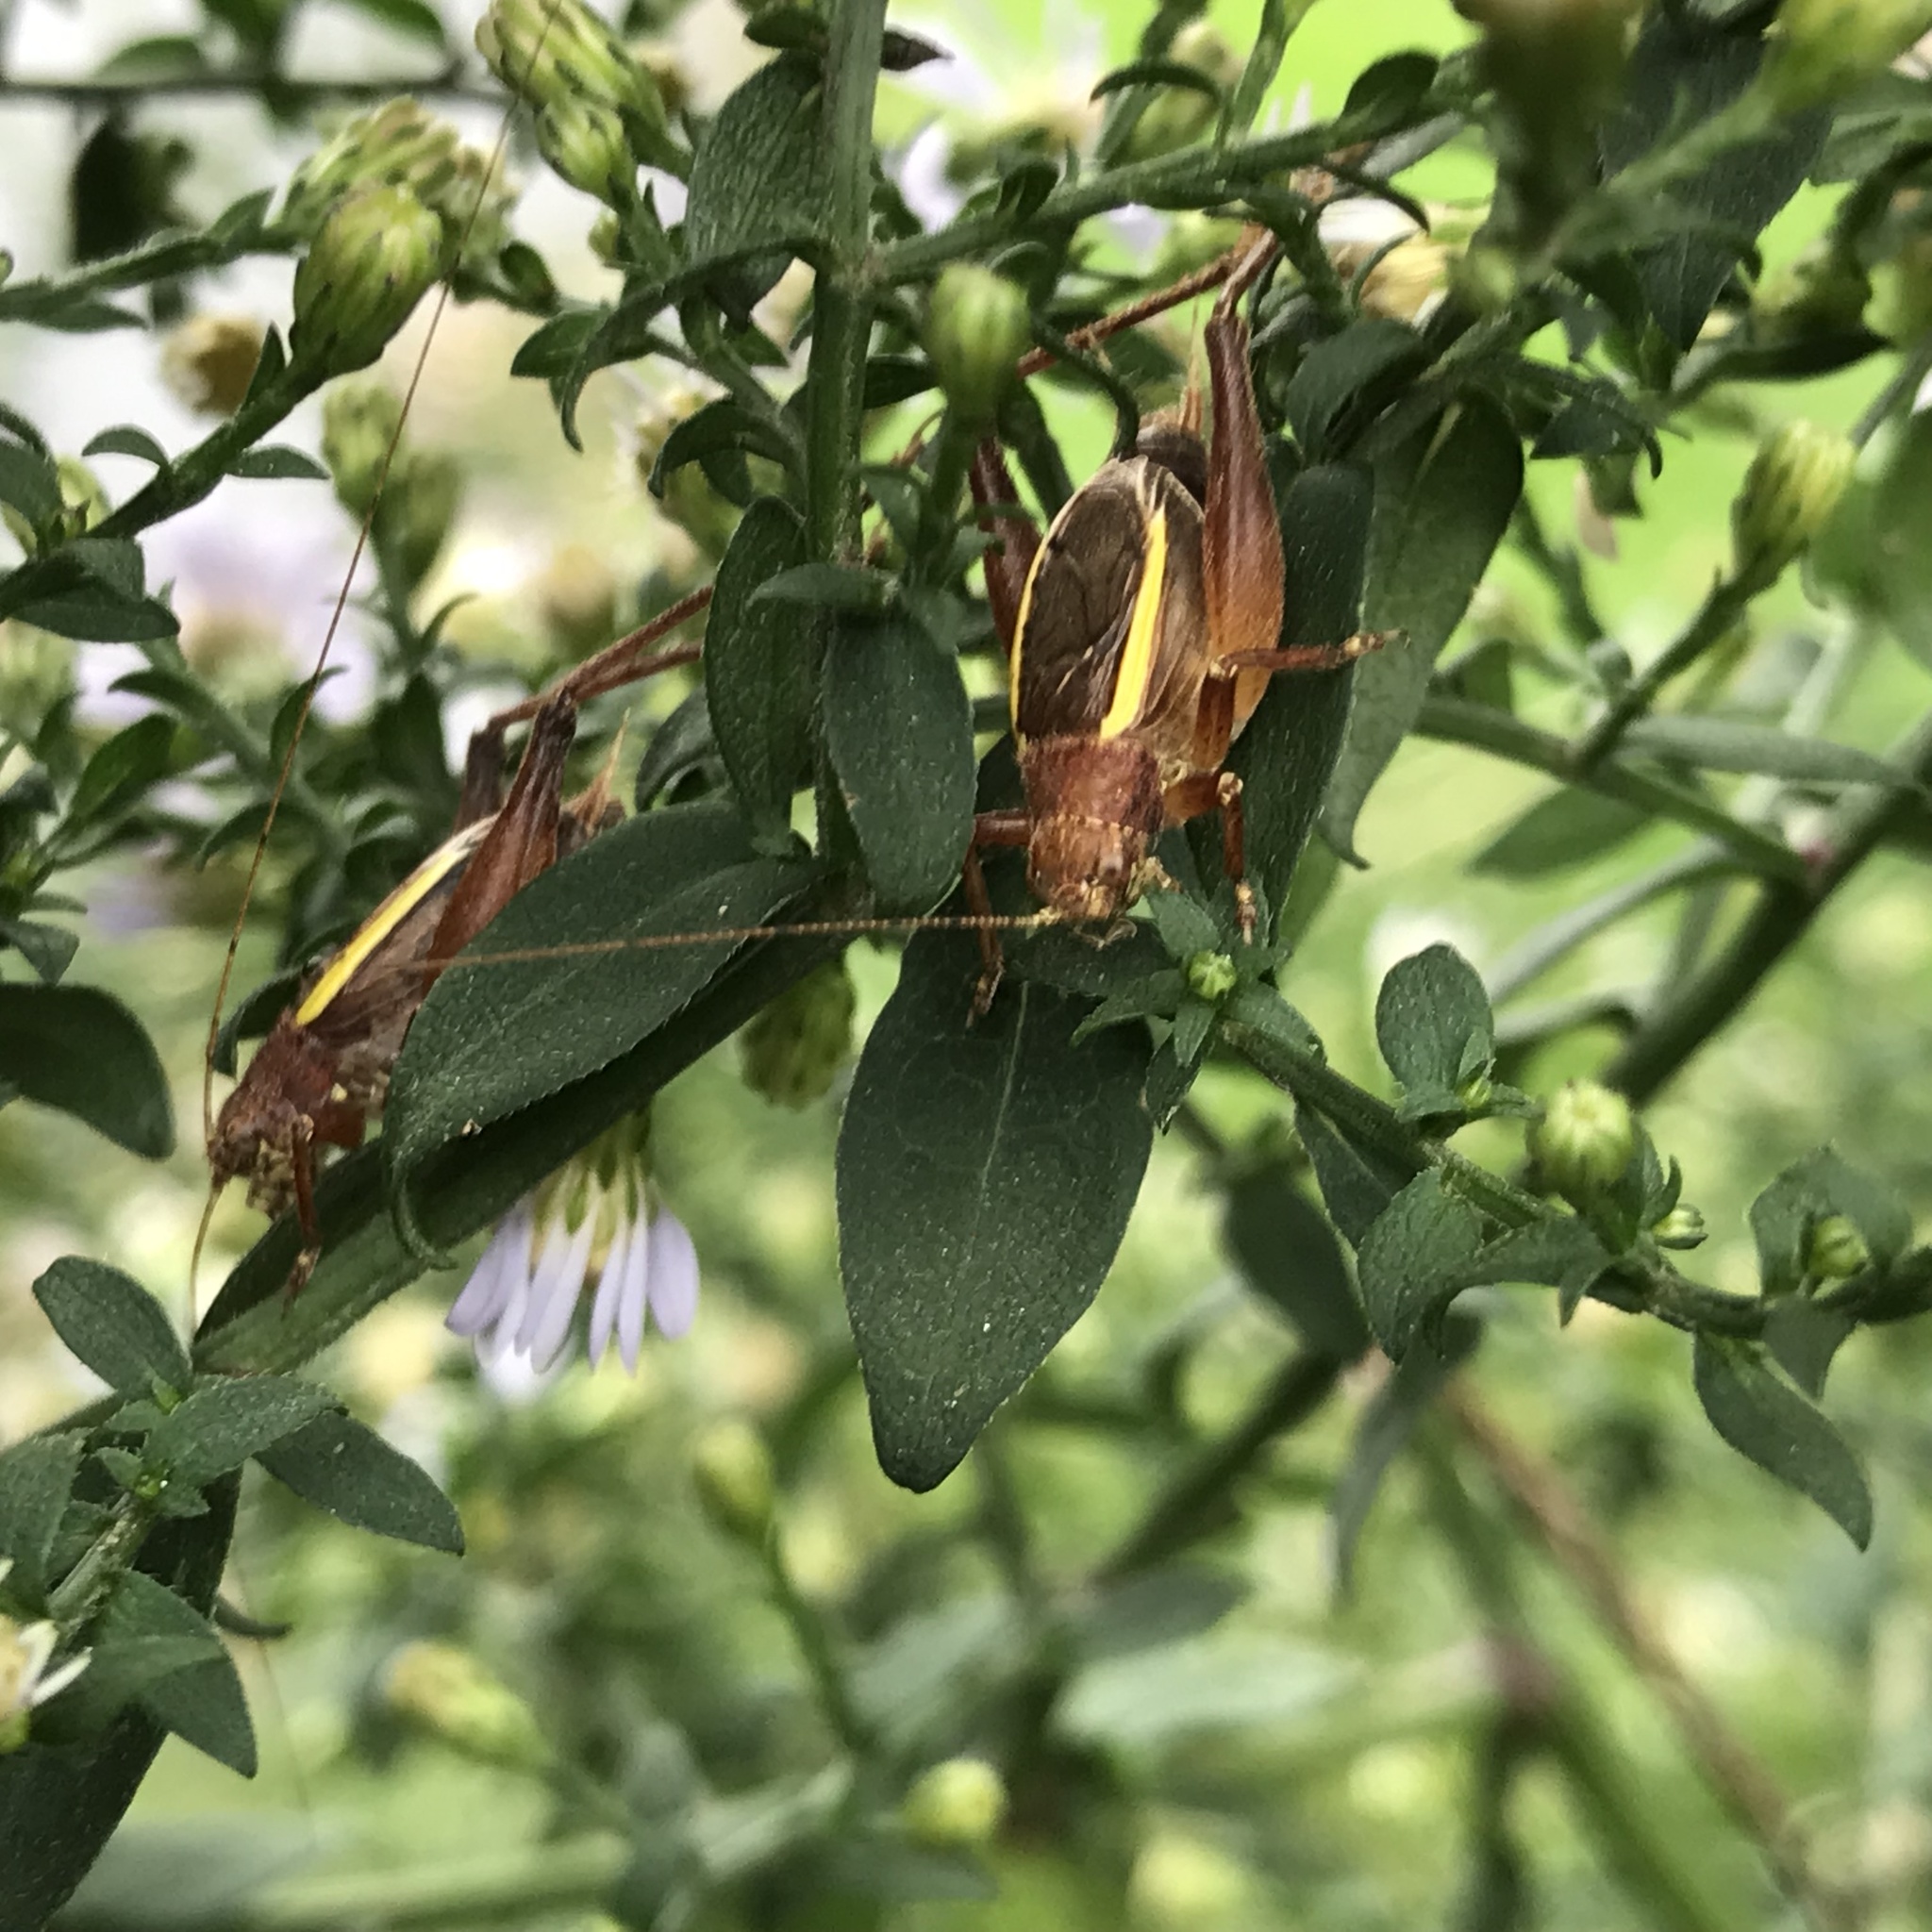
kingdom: Animalia
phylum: Arthropoda
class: Insecta
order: Orthoptera
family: Gryllidae
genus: Hapithus
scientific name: Hapithus agitator
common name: Restless bush cricket
